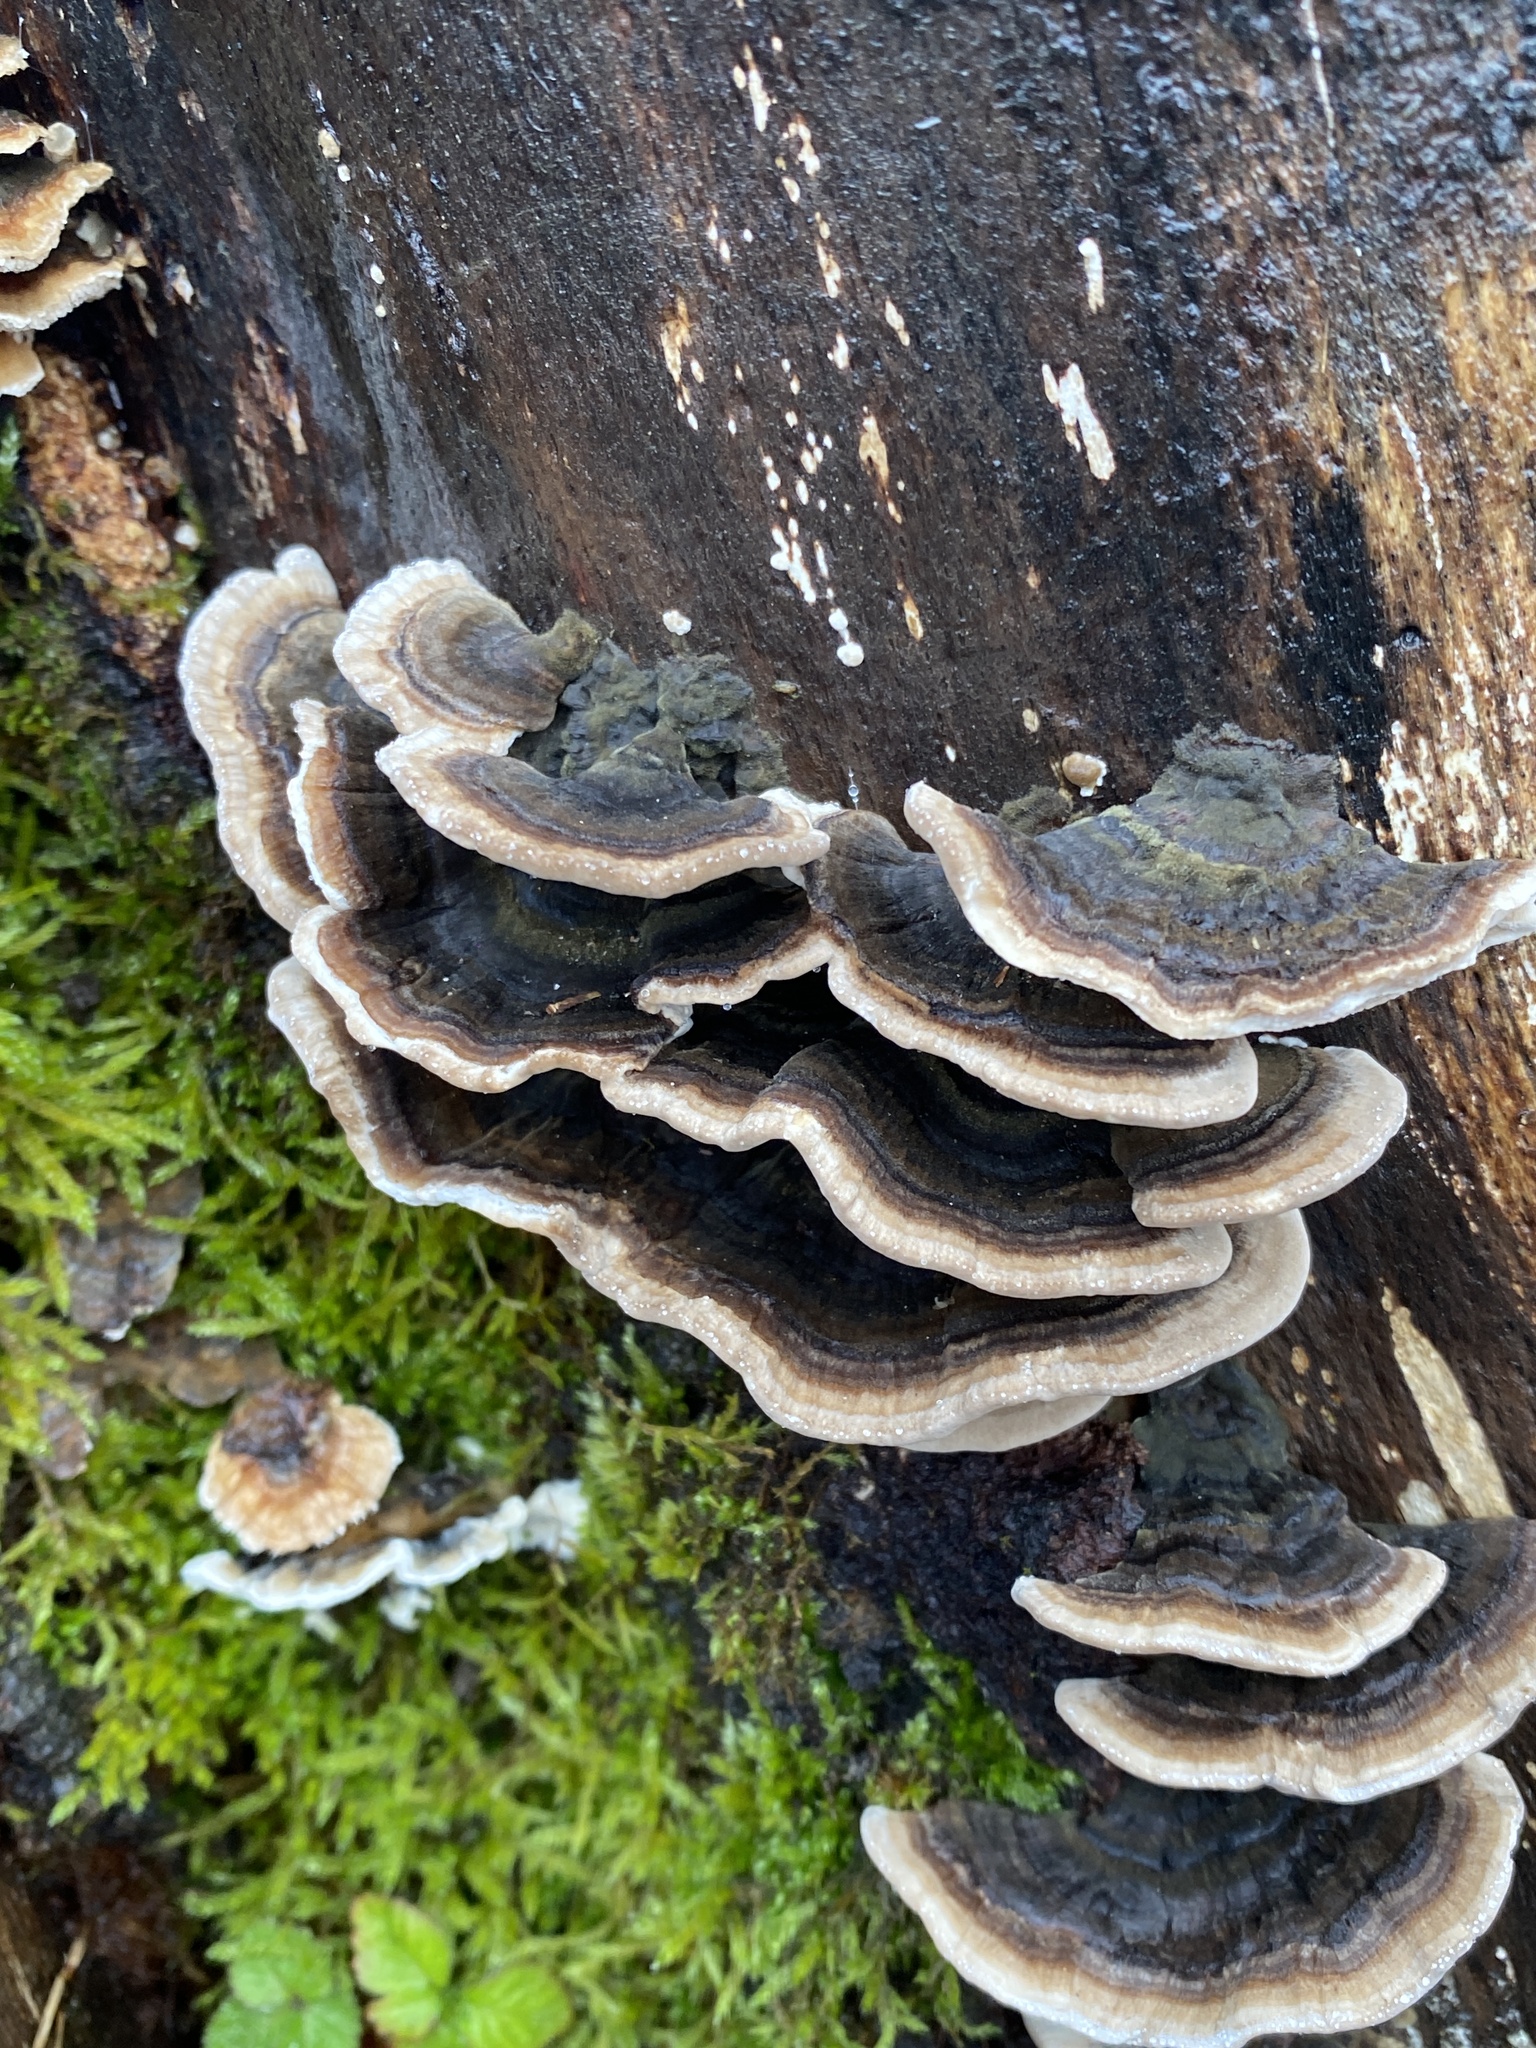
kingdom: Fungi
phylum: Basidiomycota
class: Agaricomycetes
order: Polyporales
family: Polyporaceae
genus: Trametes
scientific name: Trametes versicolor
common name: Turkeytail
